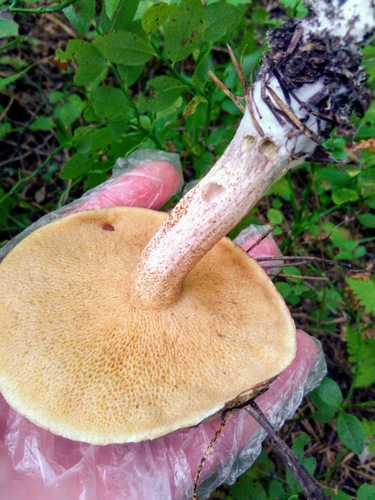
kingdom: Fungi
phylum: Basidiomycota
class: Agaricomycetes
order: Boletales
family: Suillaceae
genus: Suillus
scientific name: Suillus placidus
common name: Slippery white bolete
